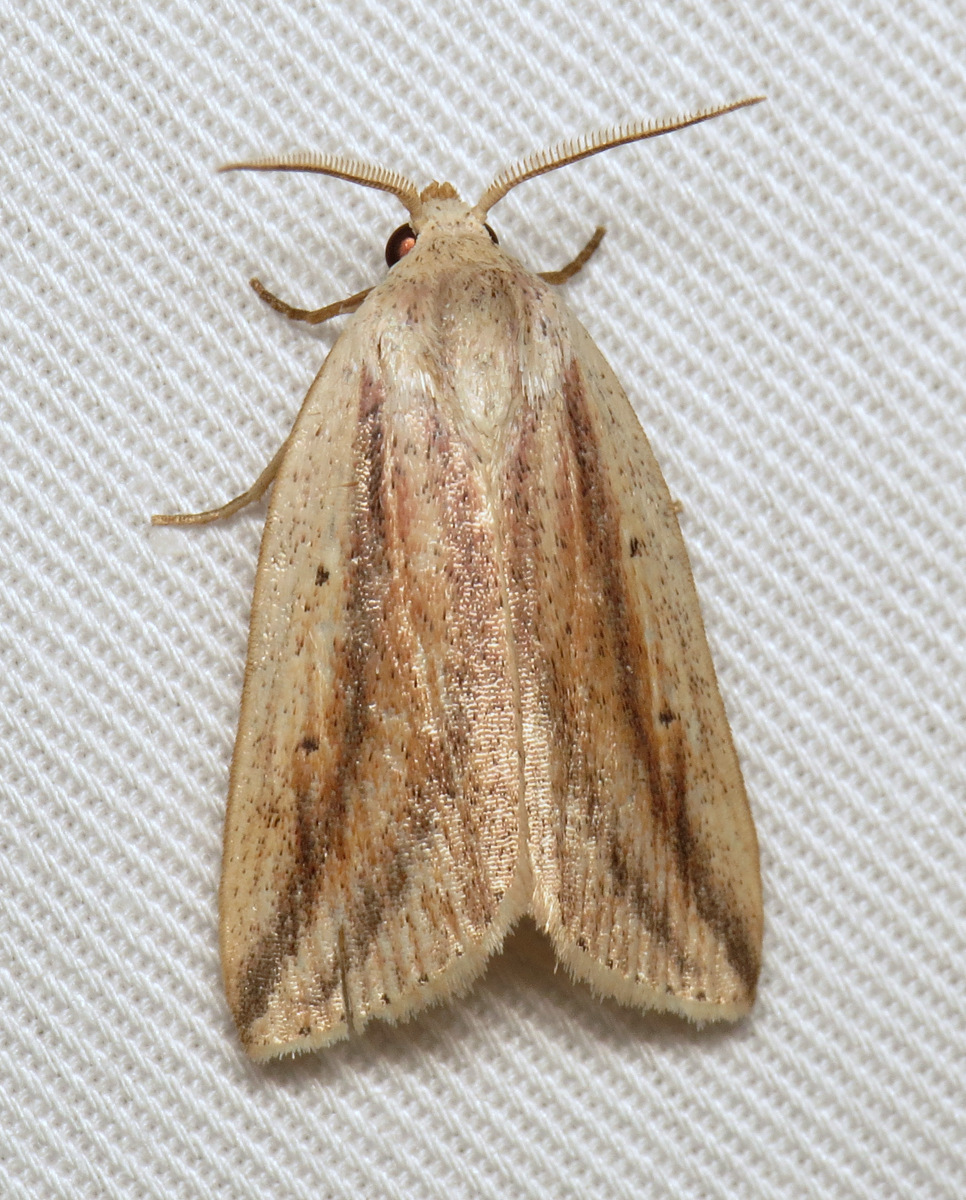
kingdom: Animalia
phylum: Arthropoda
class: Insecta
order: Lepidoptera
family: Noctuidae
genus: Amolita
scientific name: Amolita fessa
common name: Feeble grass moth
